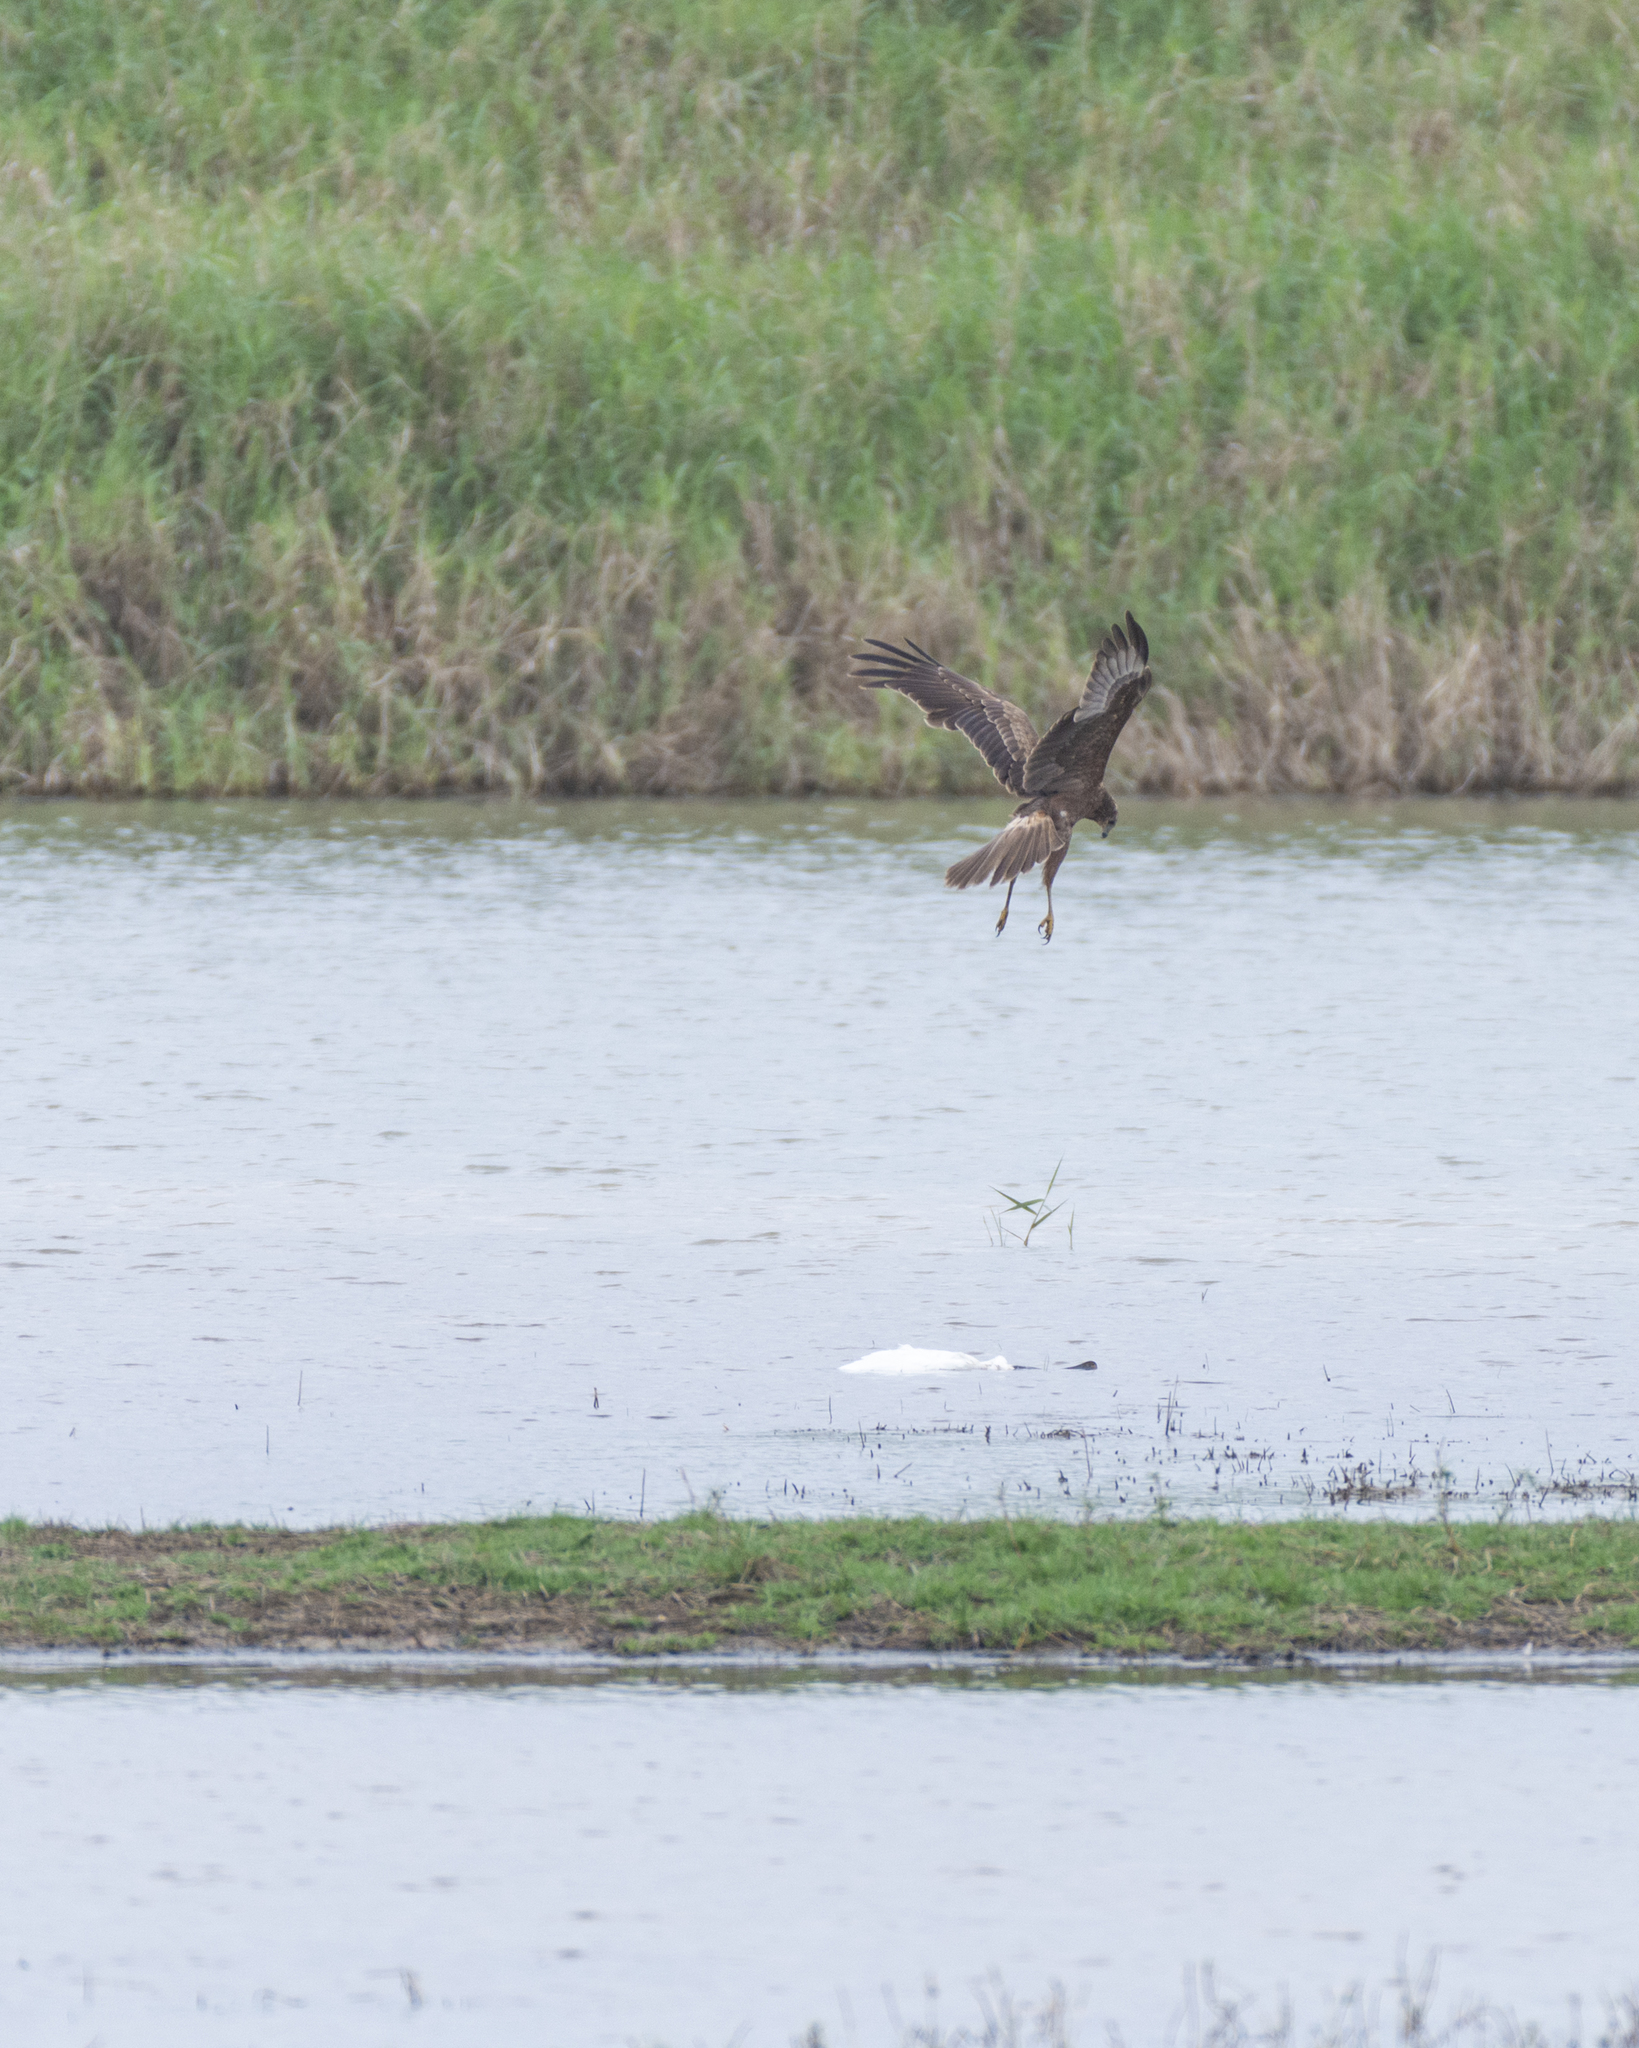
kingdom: Animalia
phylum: Chordata
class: Aves
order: Accipitriformes
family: Accipitridae
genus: Circus
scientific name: Circus spilonotus
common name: Eastern marsh-harrier
